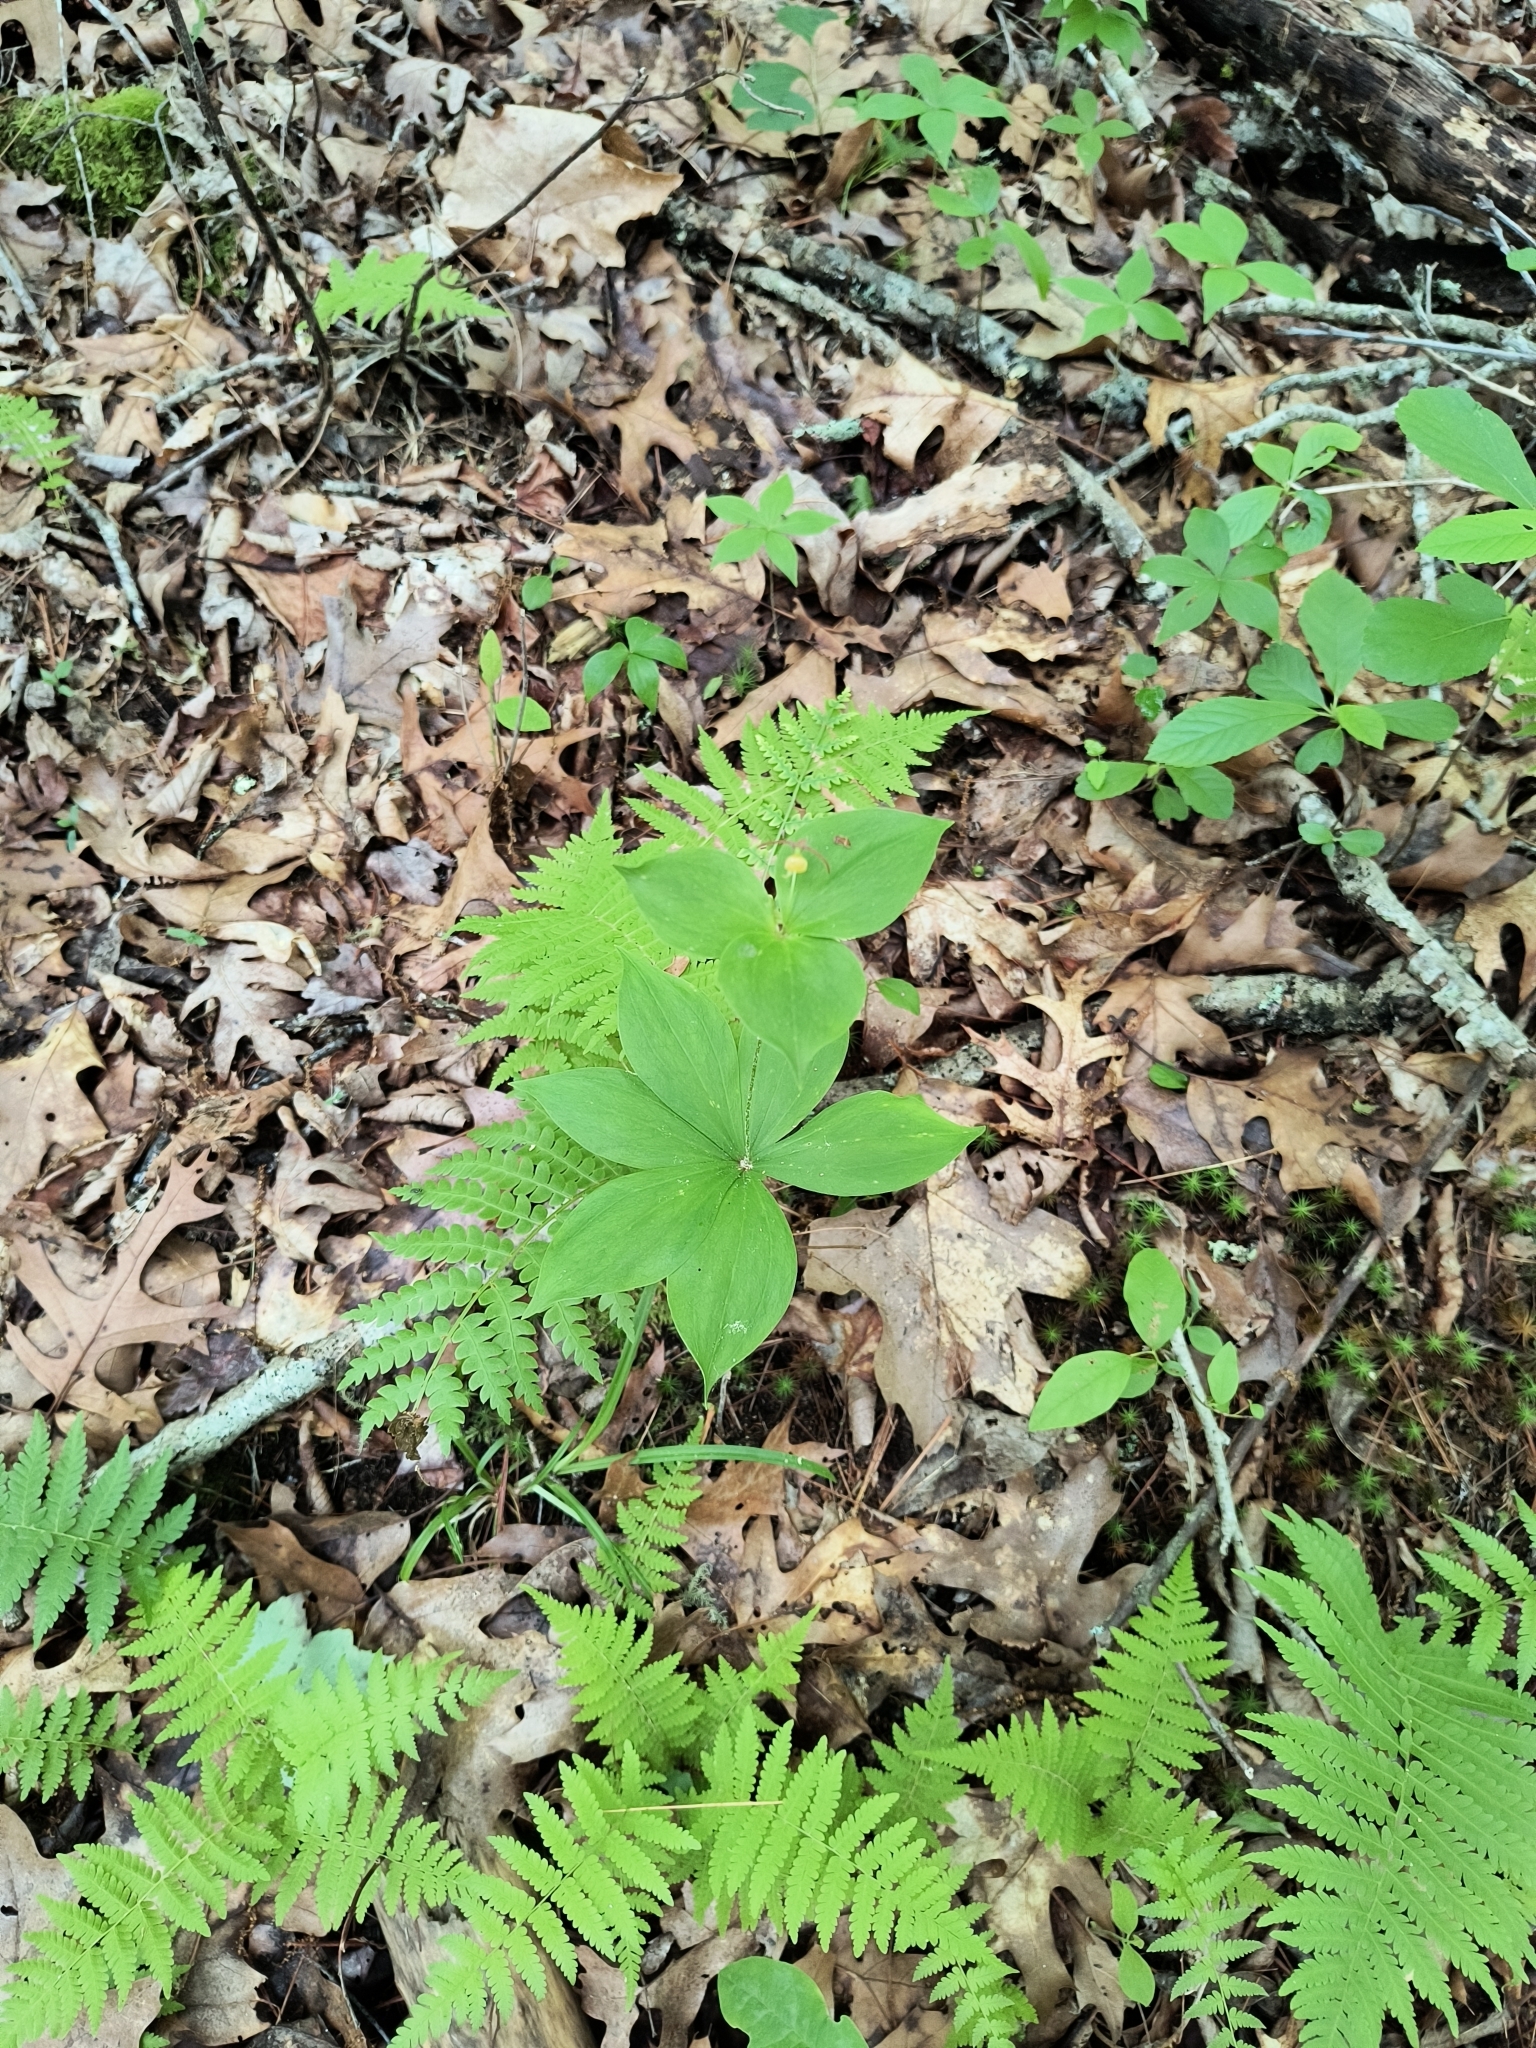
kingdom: Plantae
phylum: Tracheophyta
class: Liliopsida
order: Liliales
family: Liliaceae
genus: Medeola
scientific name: Medeola virginiana
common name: Indian cucumber-root
